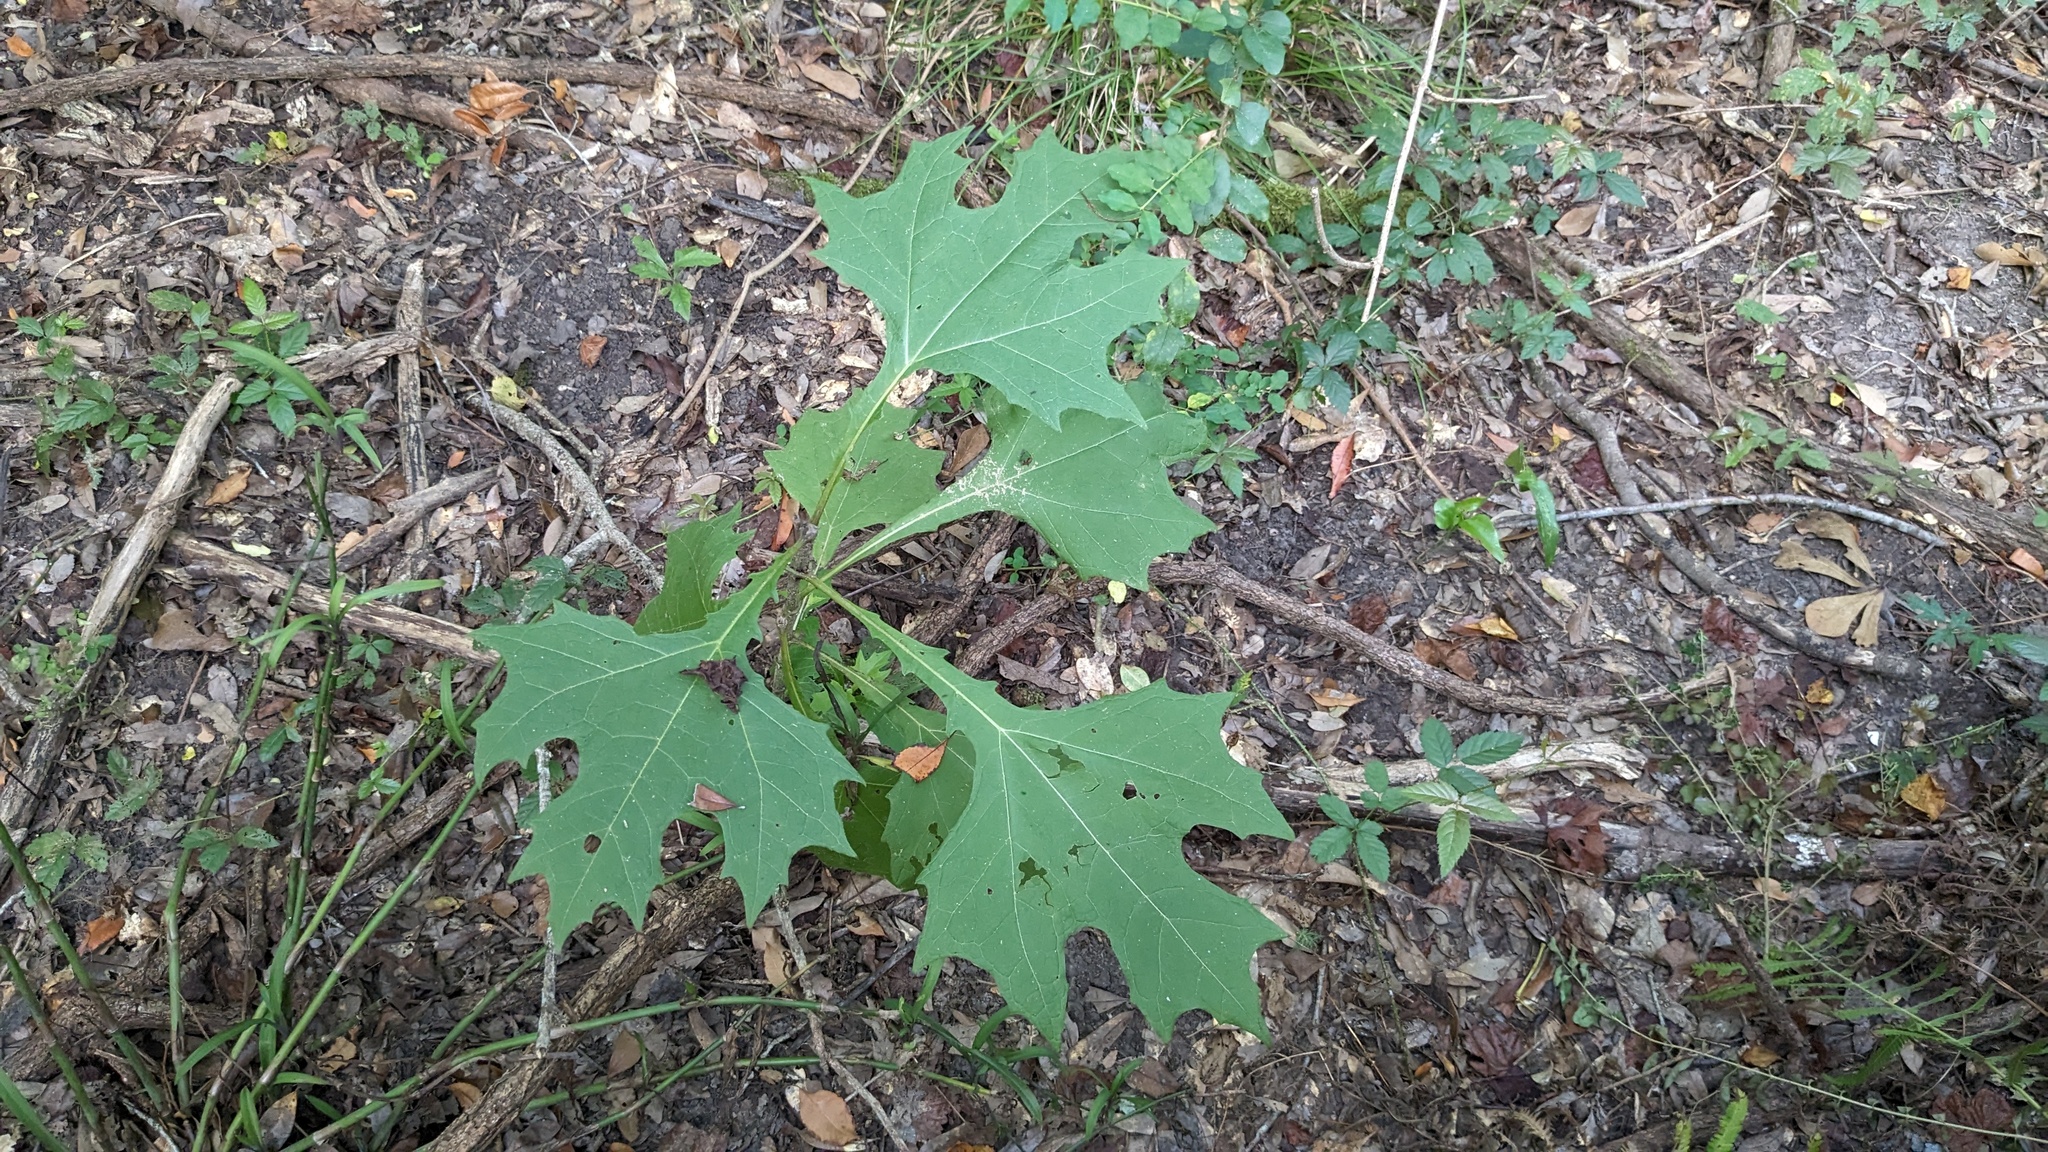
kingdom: Plantae
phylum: Tracheophyta
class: Magnoliopsida
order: Asterales
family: Asteraceae
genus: Smallanthus
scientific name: Smallanthus uvedalia
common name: Bear's-foot
